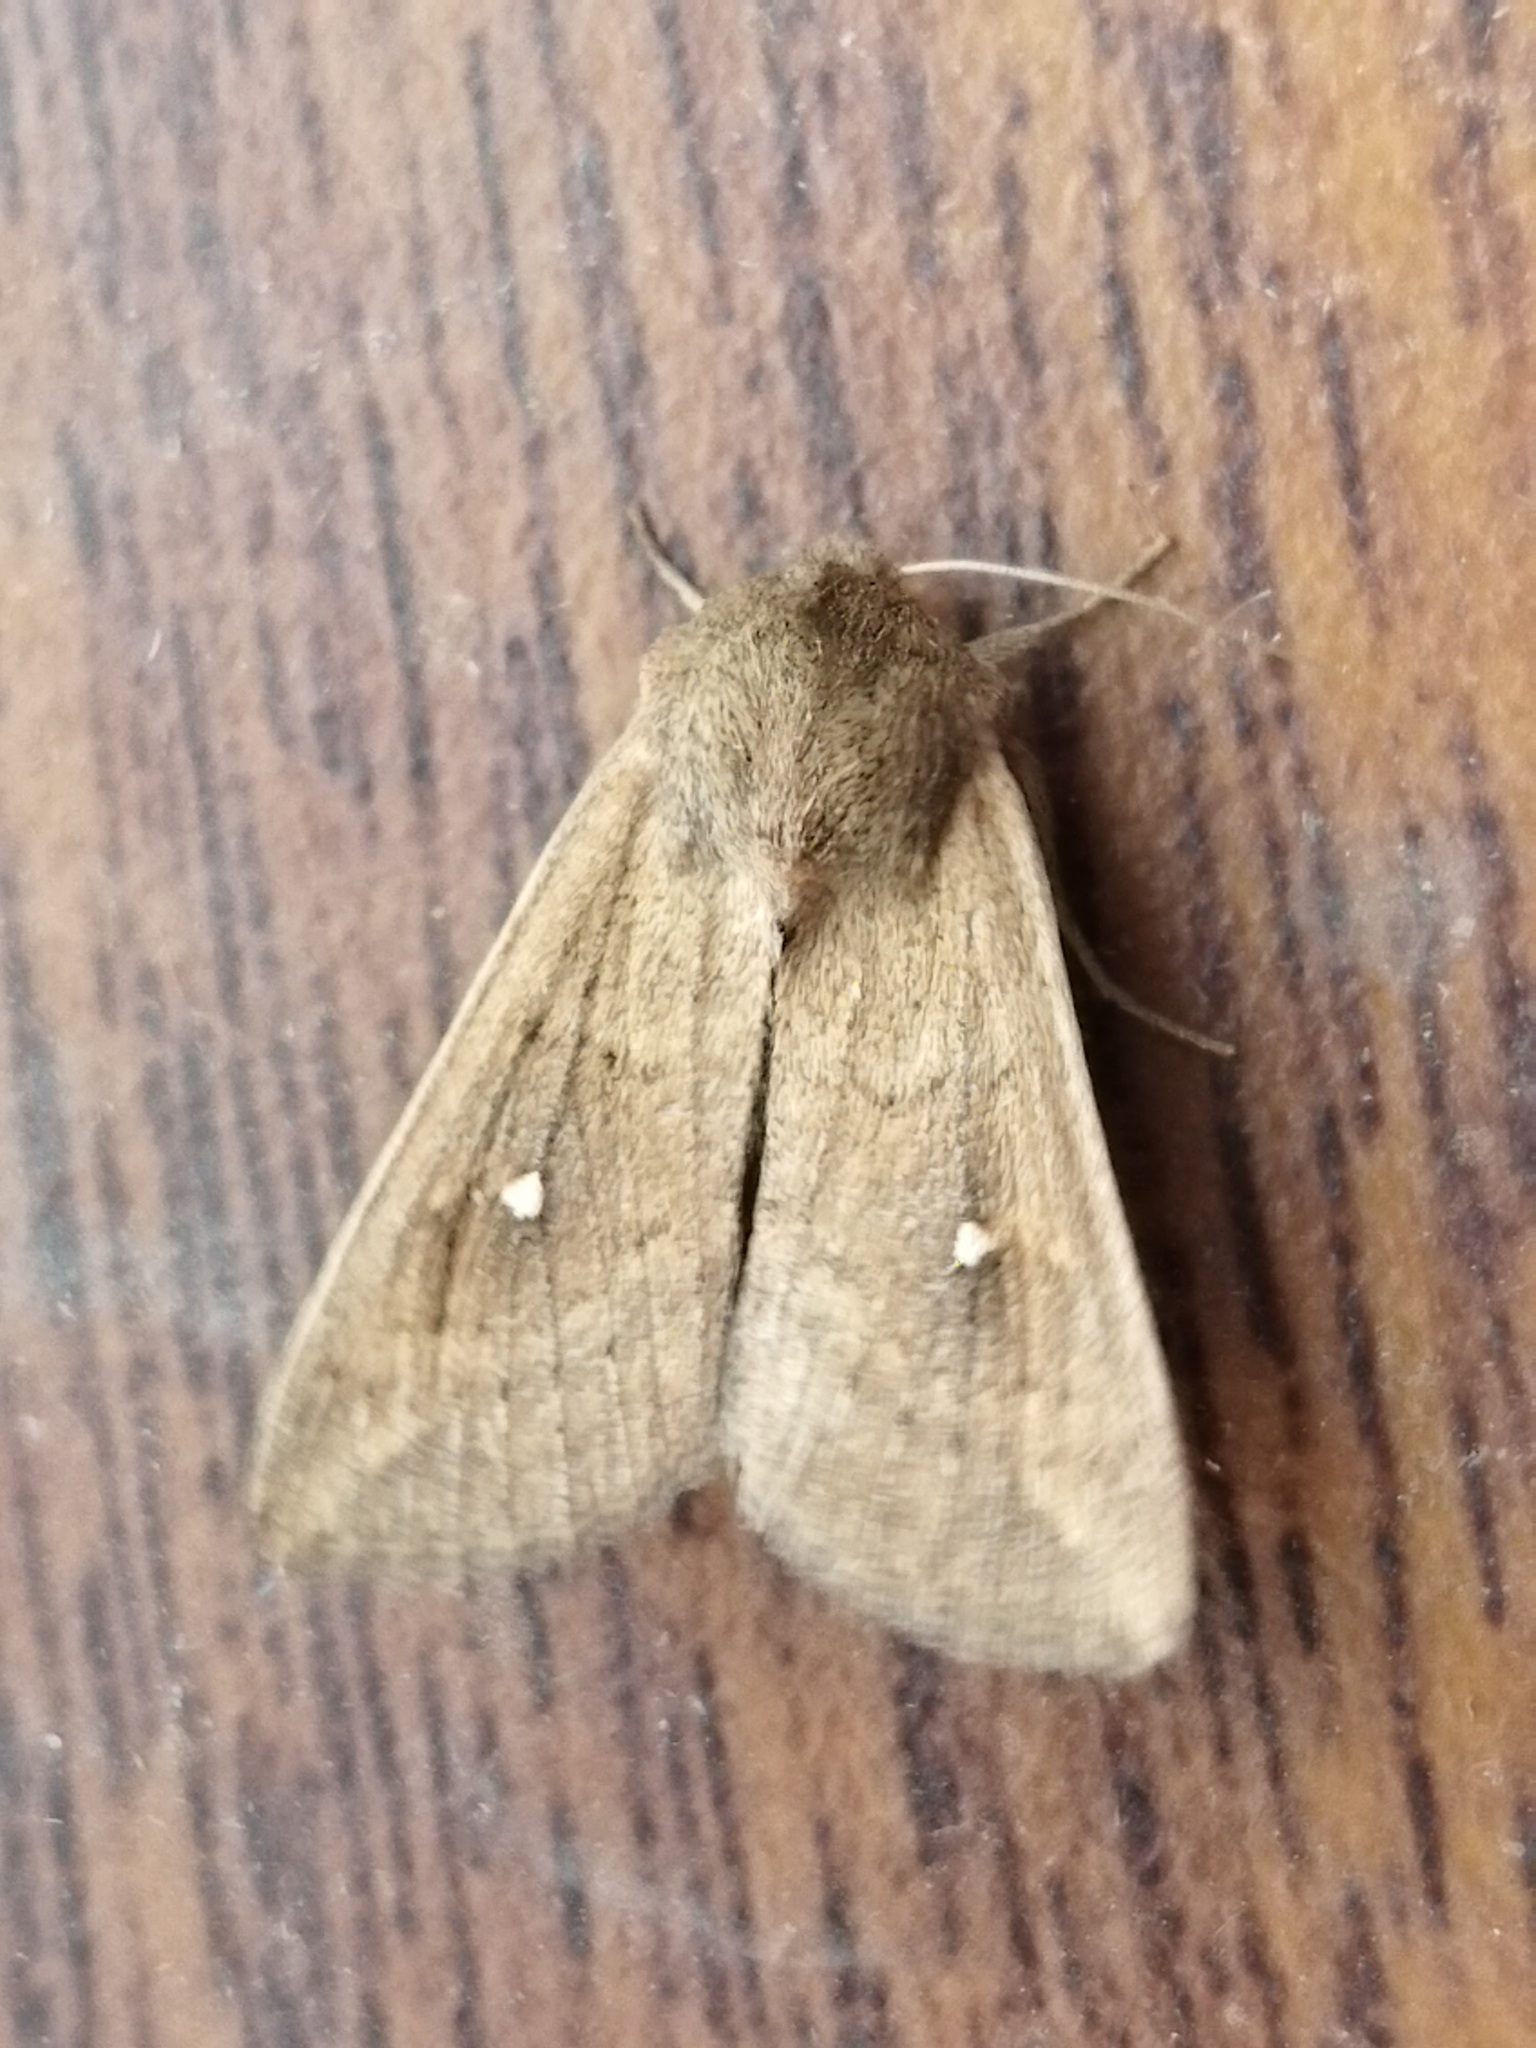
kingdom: Animalia
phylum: Arthropoda
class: Insecta
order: Lepidoptera
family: Noctuidae
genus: Mythimna
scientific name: Mythimna albipuncta
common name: White-point
